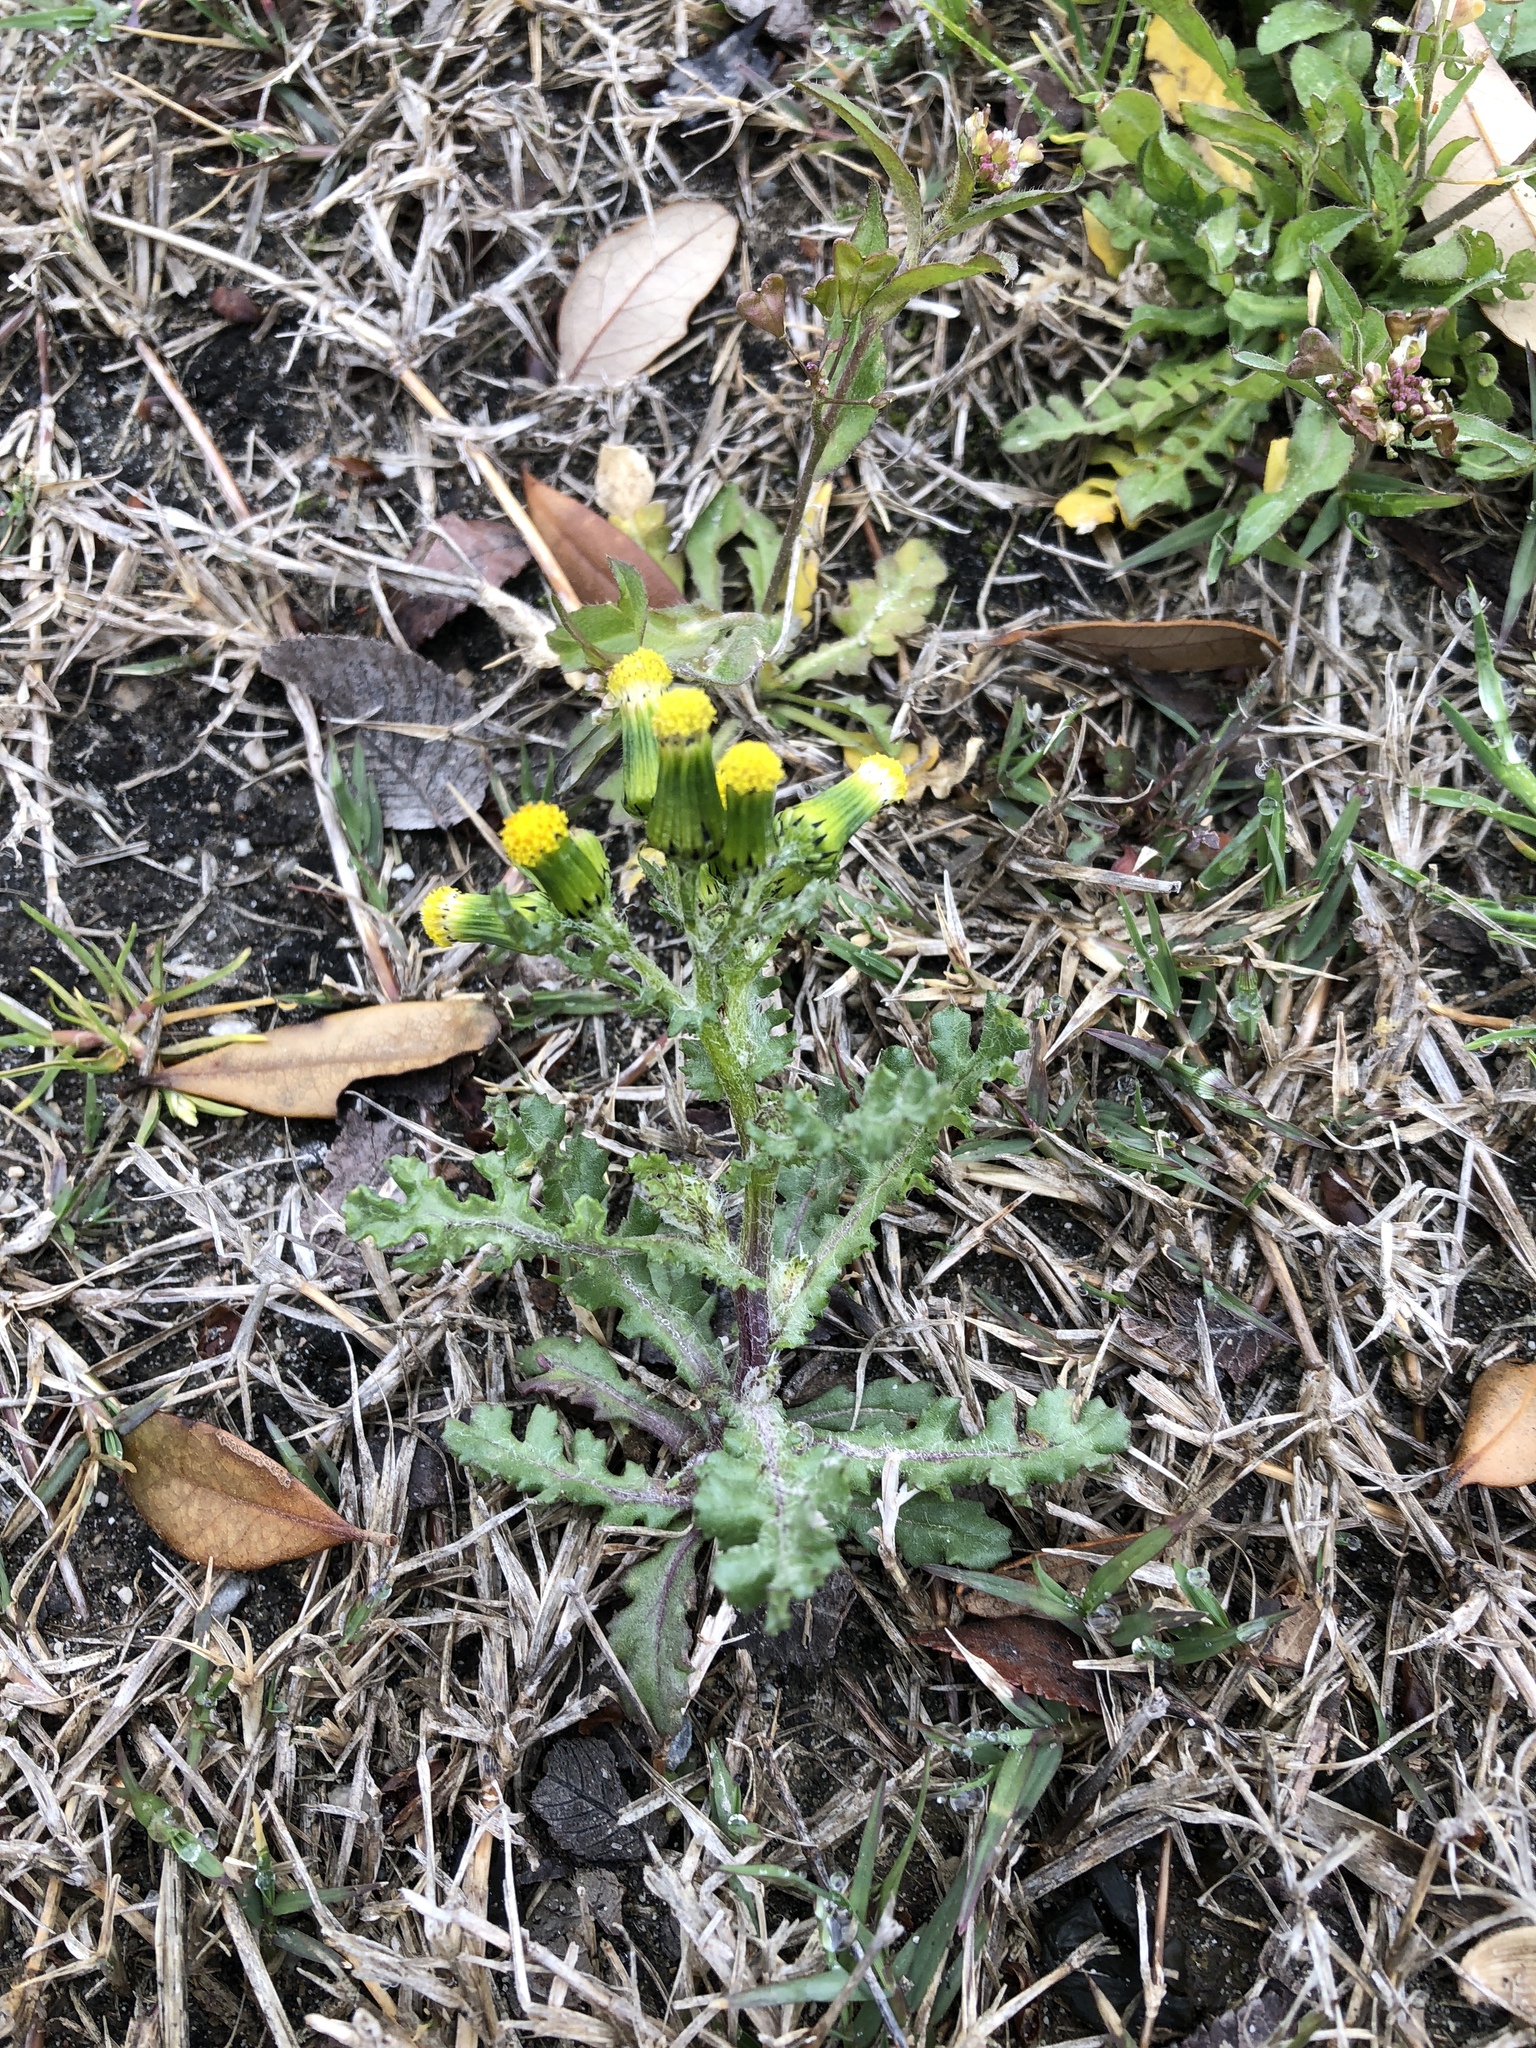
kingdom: Plantae
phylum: Tracheophyta
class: Magnoliopsida
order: Asterales
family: Asteraceae
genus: Senecio
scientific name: Senecio vulgaris
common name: Old-man-in-the-spring
